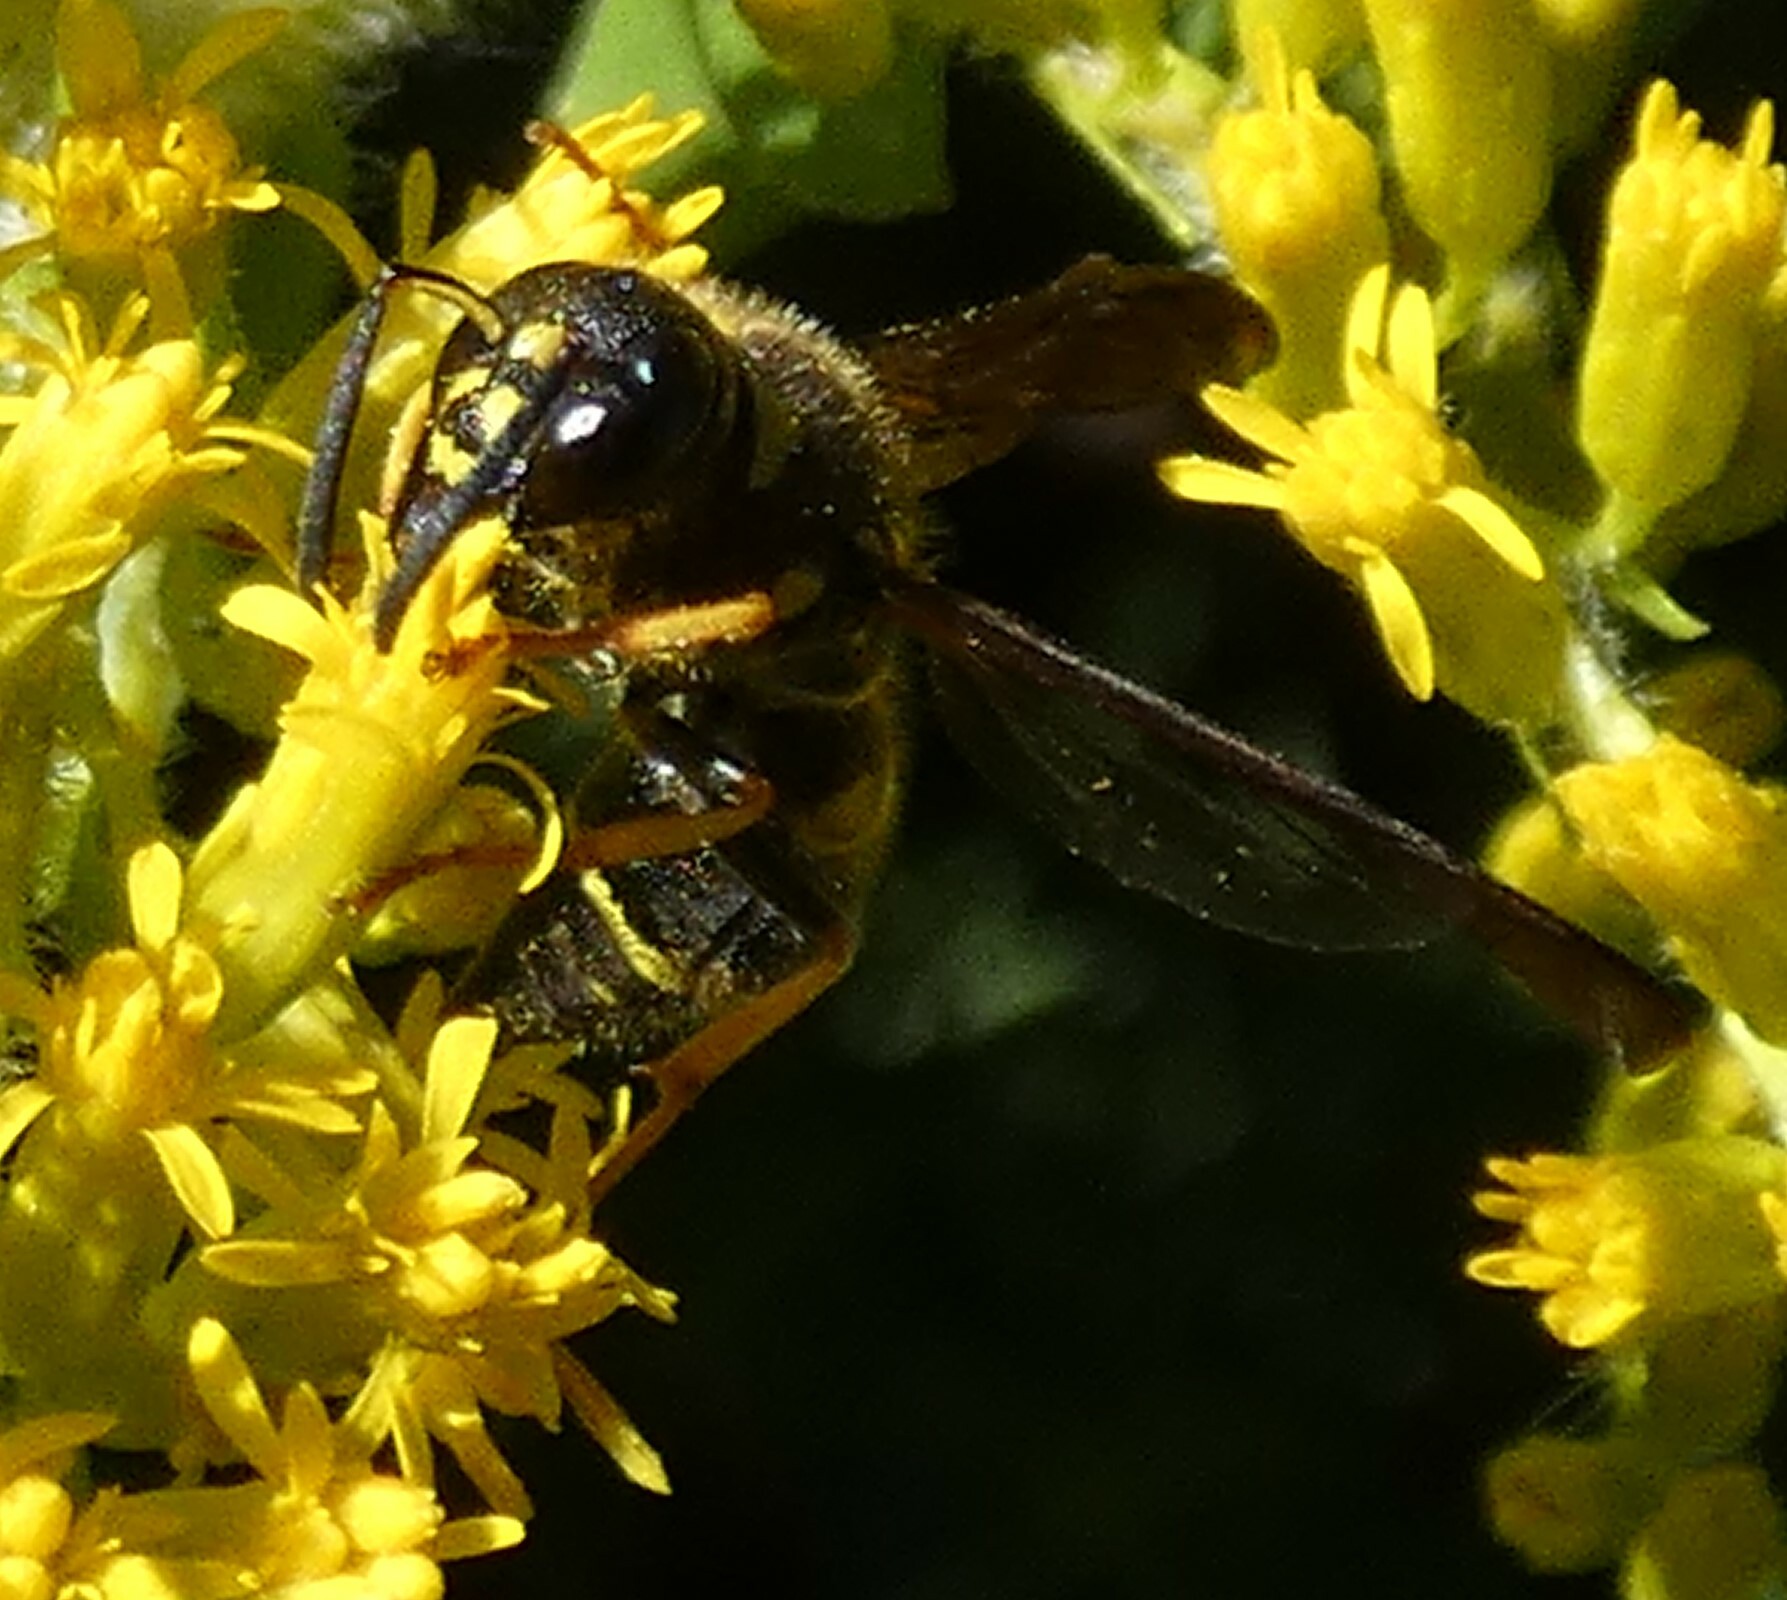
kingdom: Animalia
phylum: Arthropoda
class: Insecta
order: Hymenoptera
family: Vespidae
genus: Ancistrocerus
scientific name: Ancistrocerus campestris
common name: Smiling mason wasp
